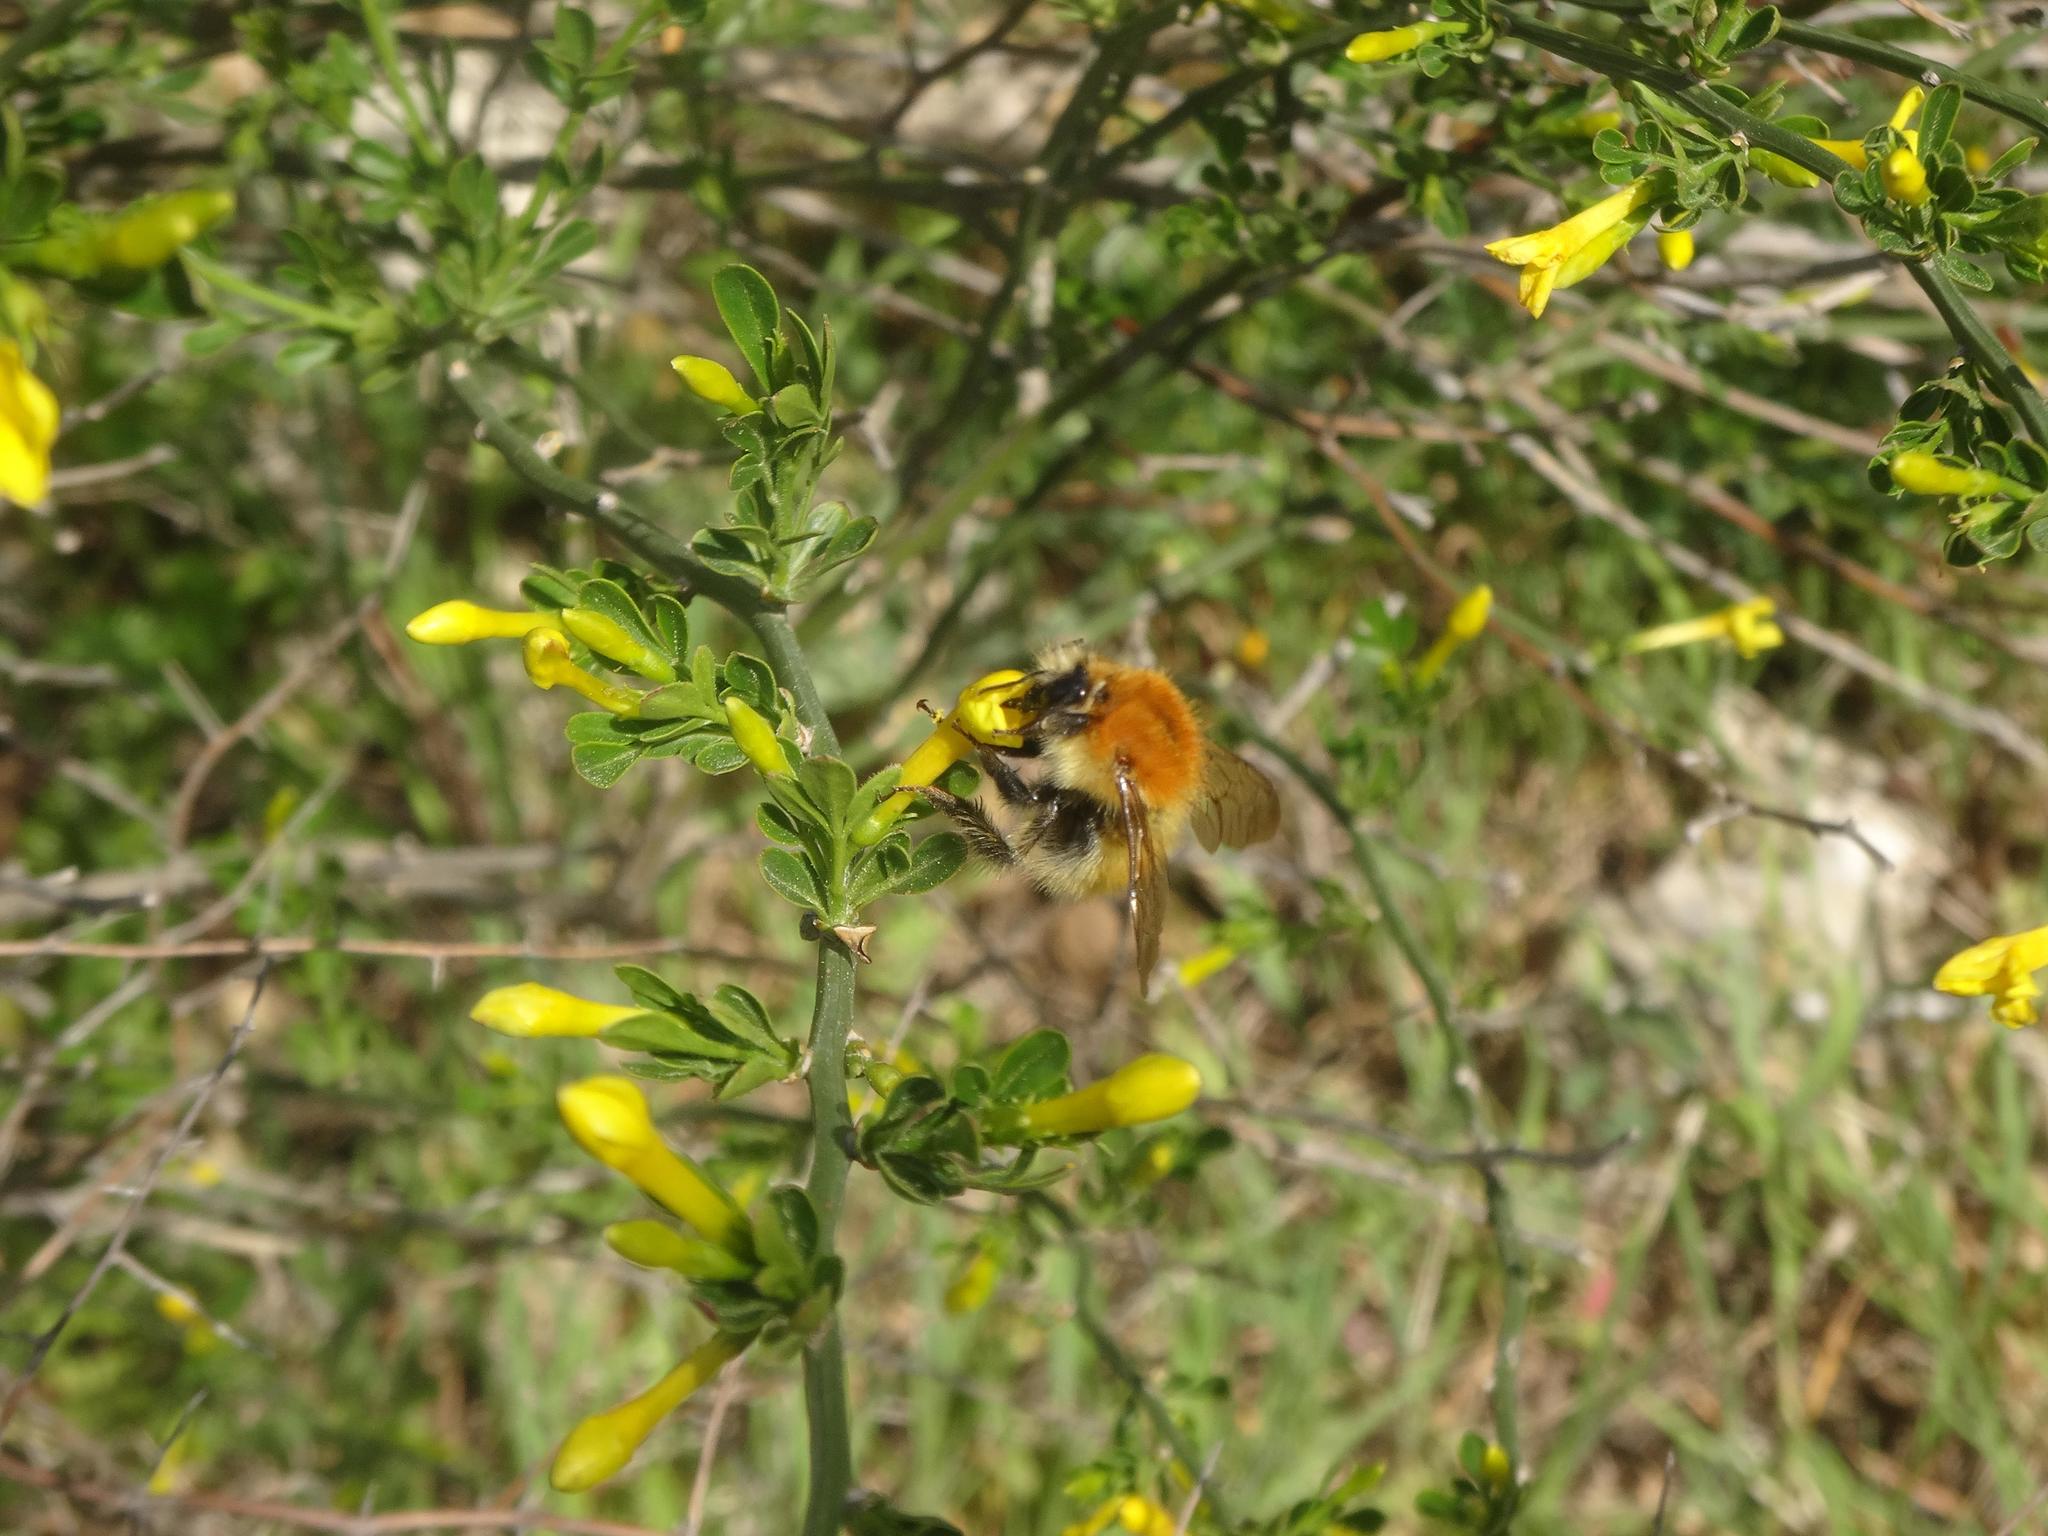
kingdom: Animalia
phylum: Arthropoda
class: Insecta
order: Hymenoptera
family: Apidae
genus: Bombus
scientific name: Bombus pascuorum
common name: Common carder bee
